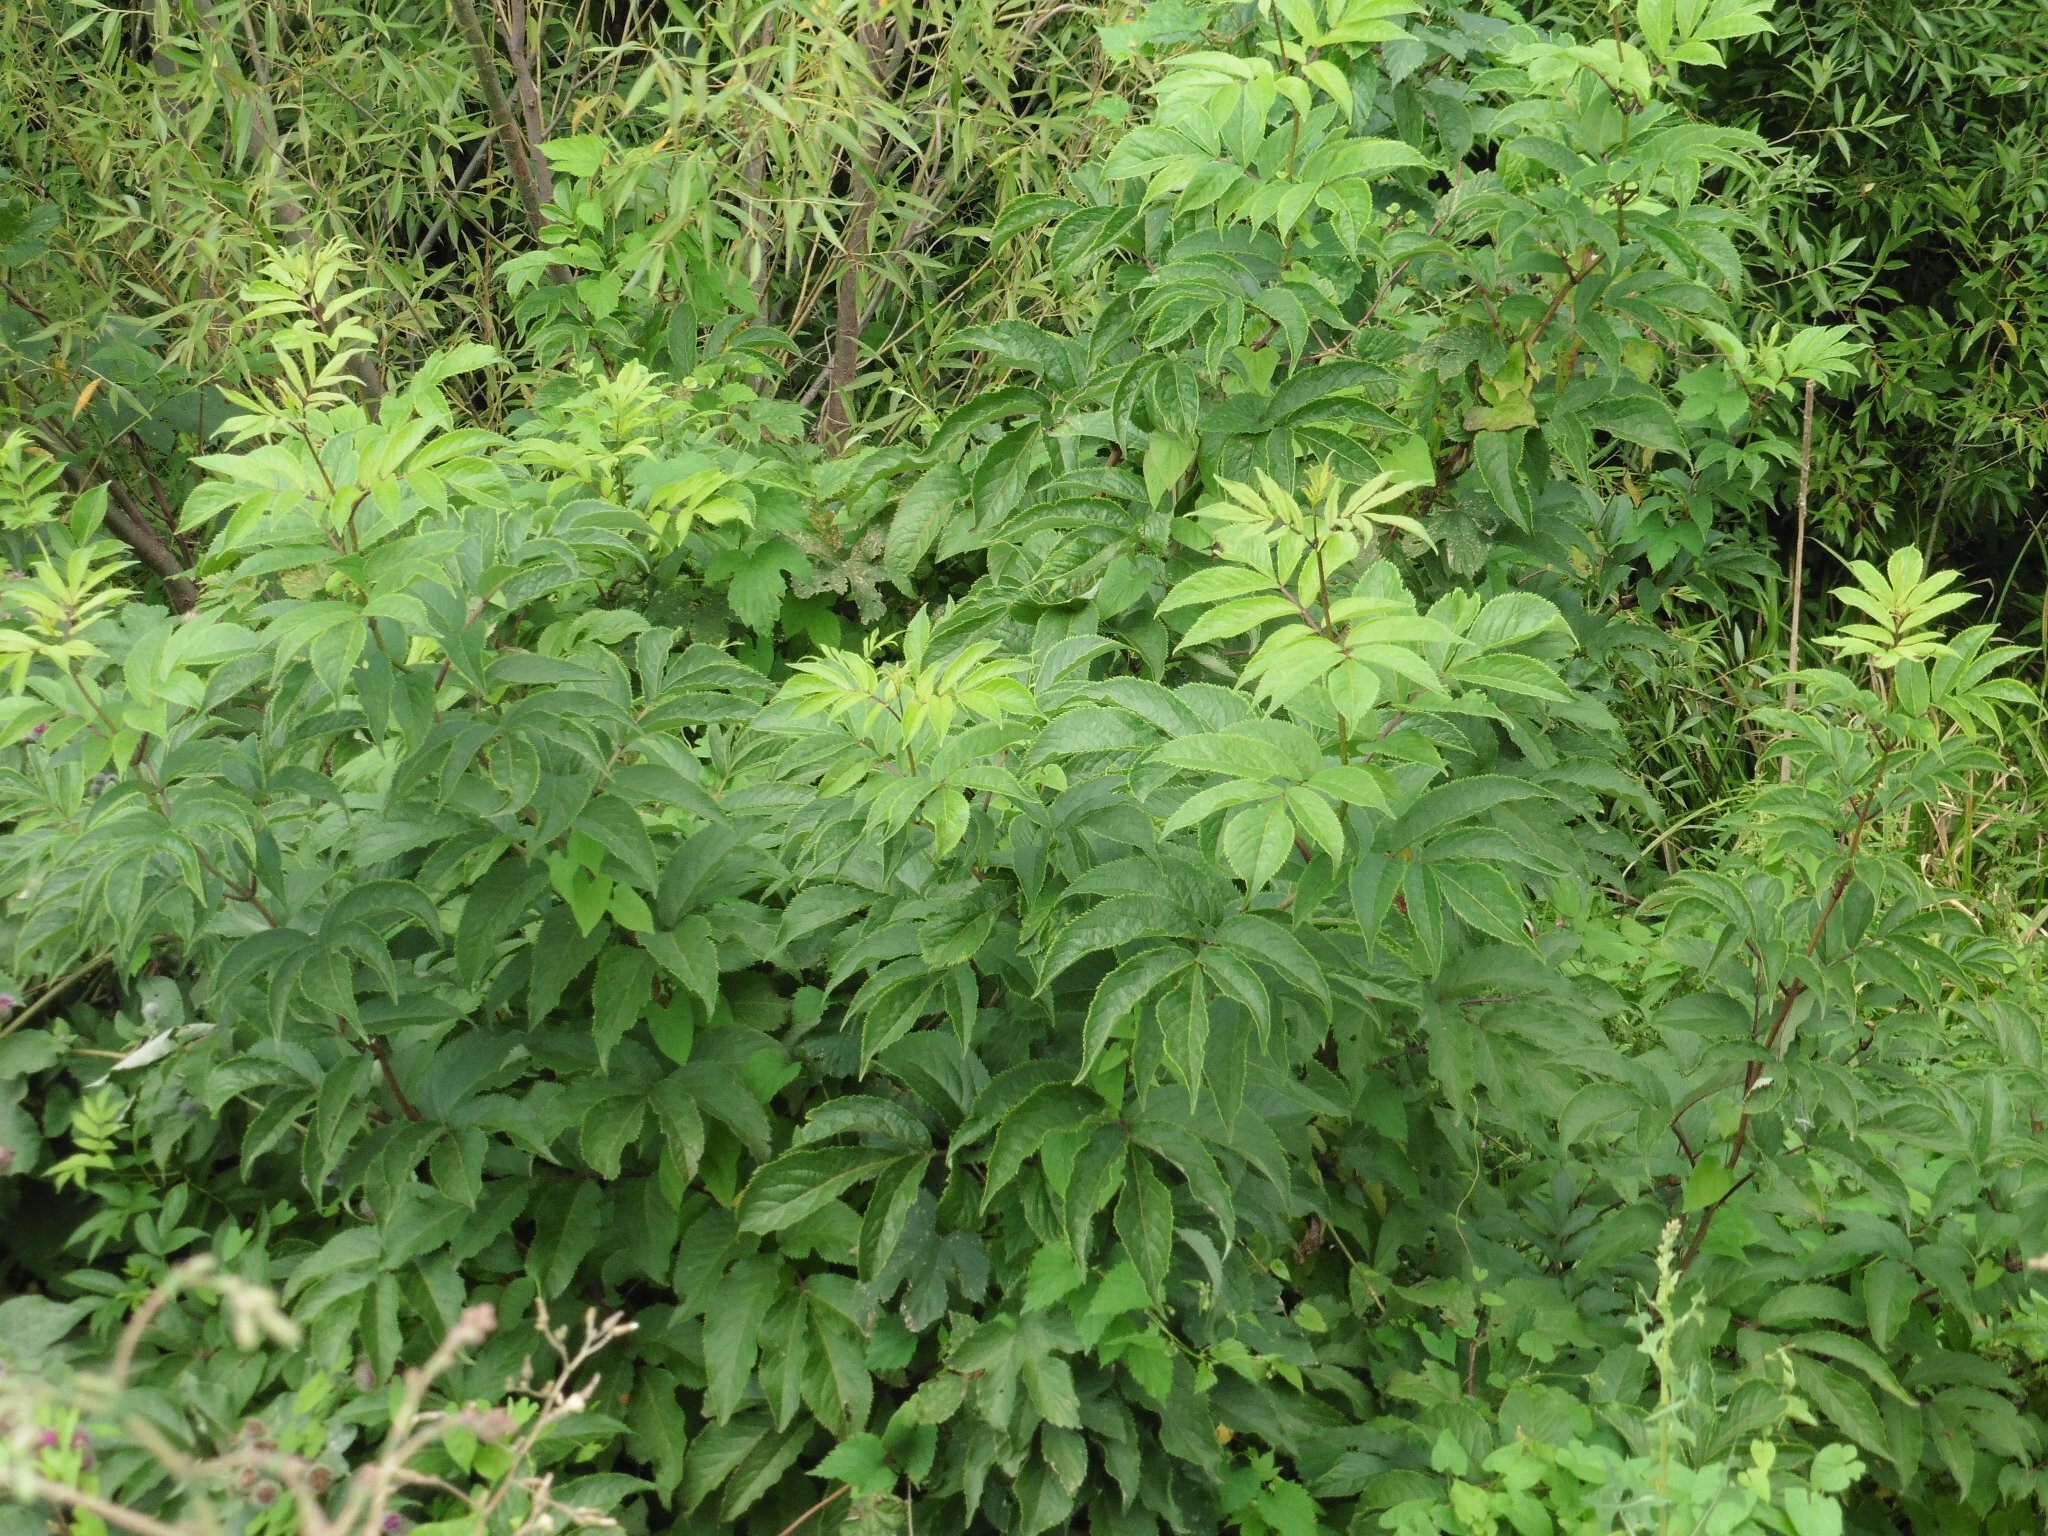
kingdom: Plantae
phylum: Tracheophyta
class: Magnoliopsida
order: Dipsacales
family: Viburnaceae
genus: Sambucus
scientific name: Sambucus racemosa
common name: Red-berried elder
